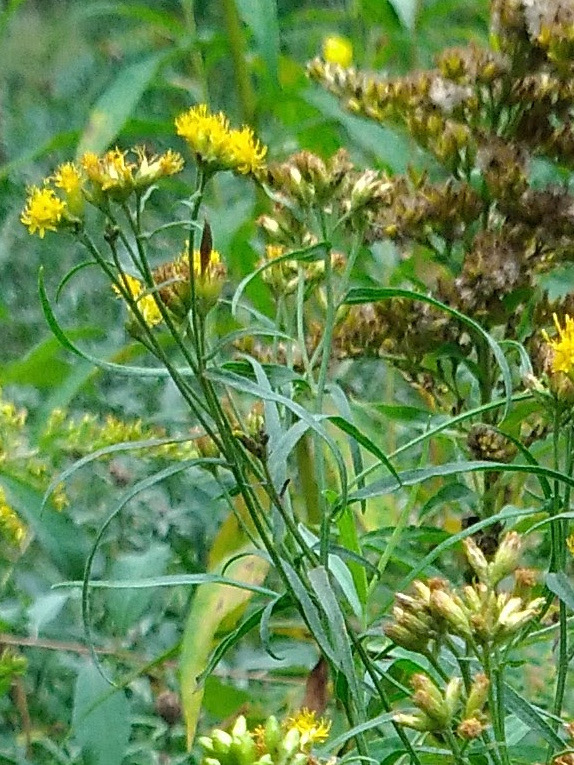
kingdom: Animalia
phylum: Arthropoda
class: Insecta
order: Diptera
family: Cecidomyiidae
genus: Rhopalomyia
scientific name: Rhopalomyia pedicellata
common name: Goldentop pedicellate gall midge
